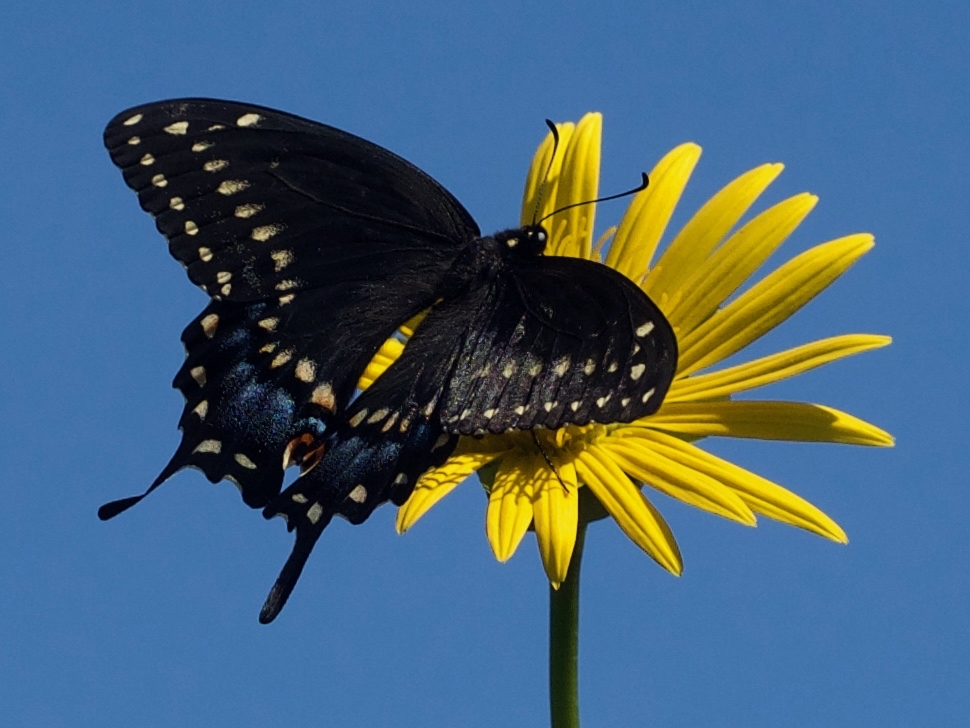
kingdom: Animalia
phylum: Arthropoda
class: Insecta
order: Lepidoptera
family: Papilionidae
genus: Papilio
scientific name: Papilio polyxenes
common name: Black swallowtail
